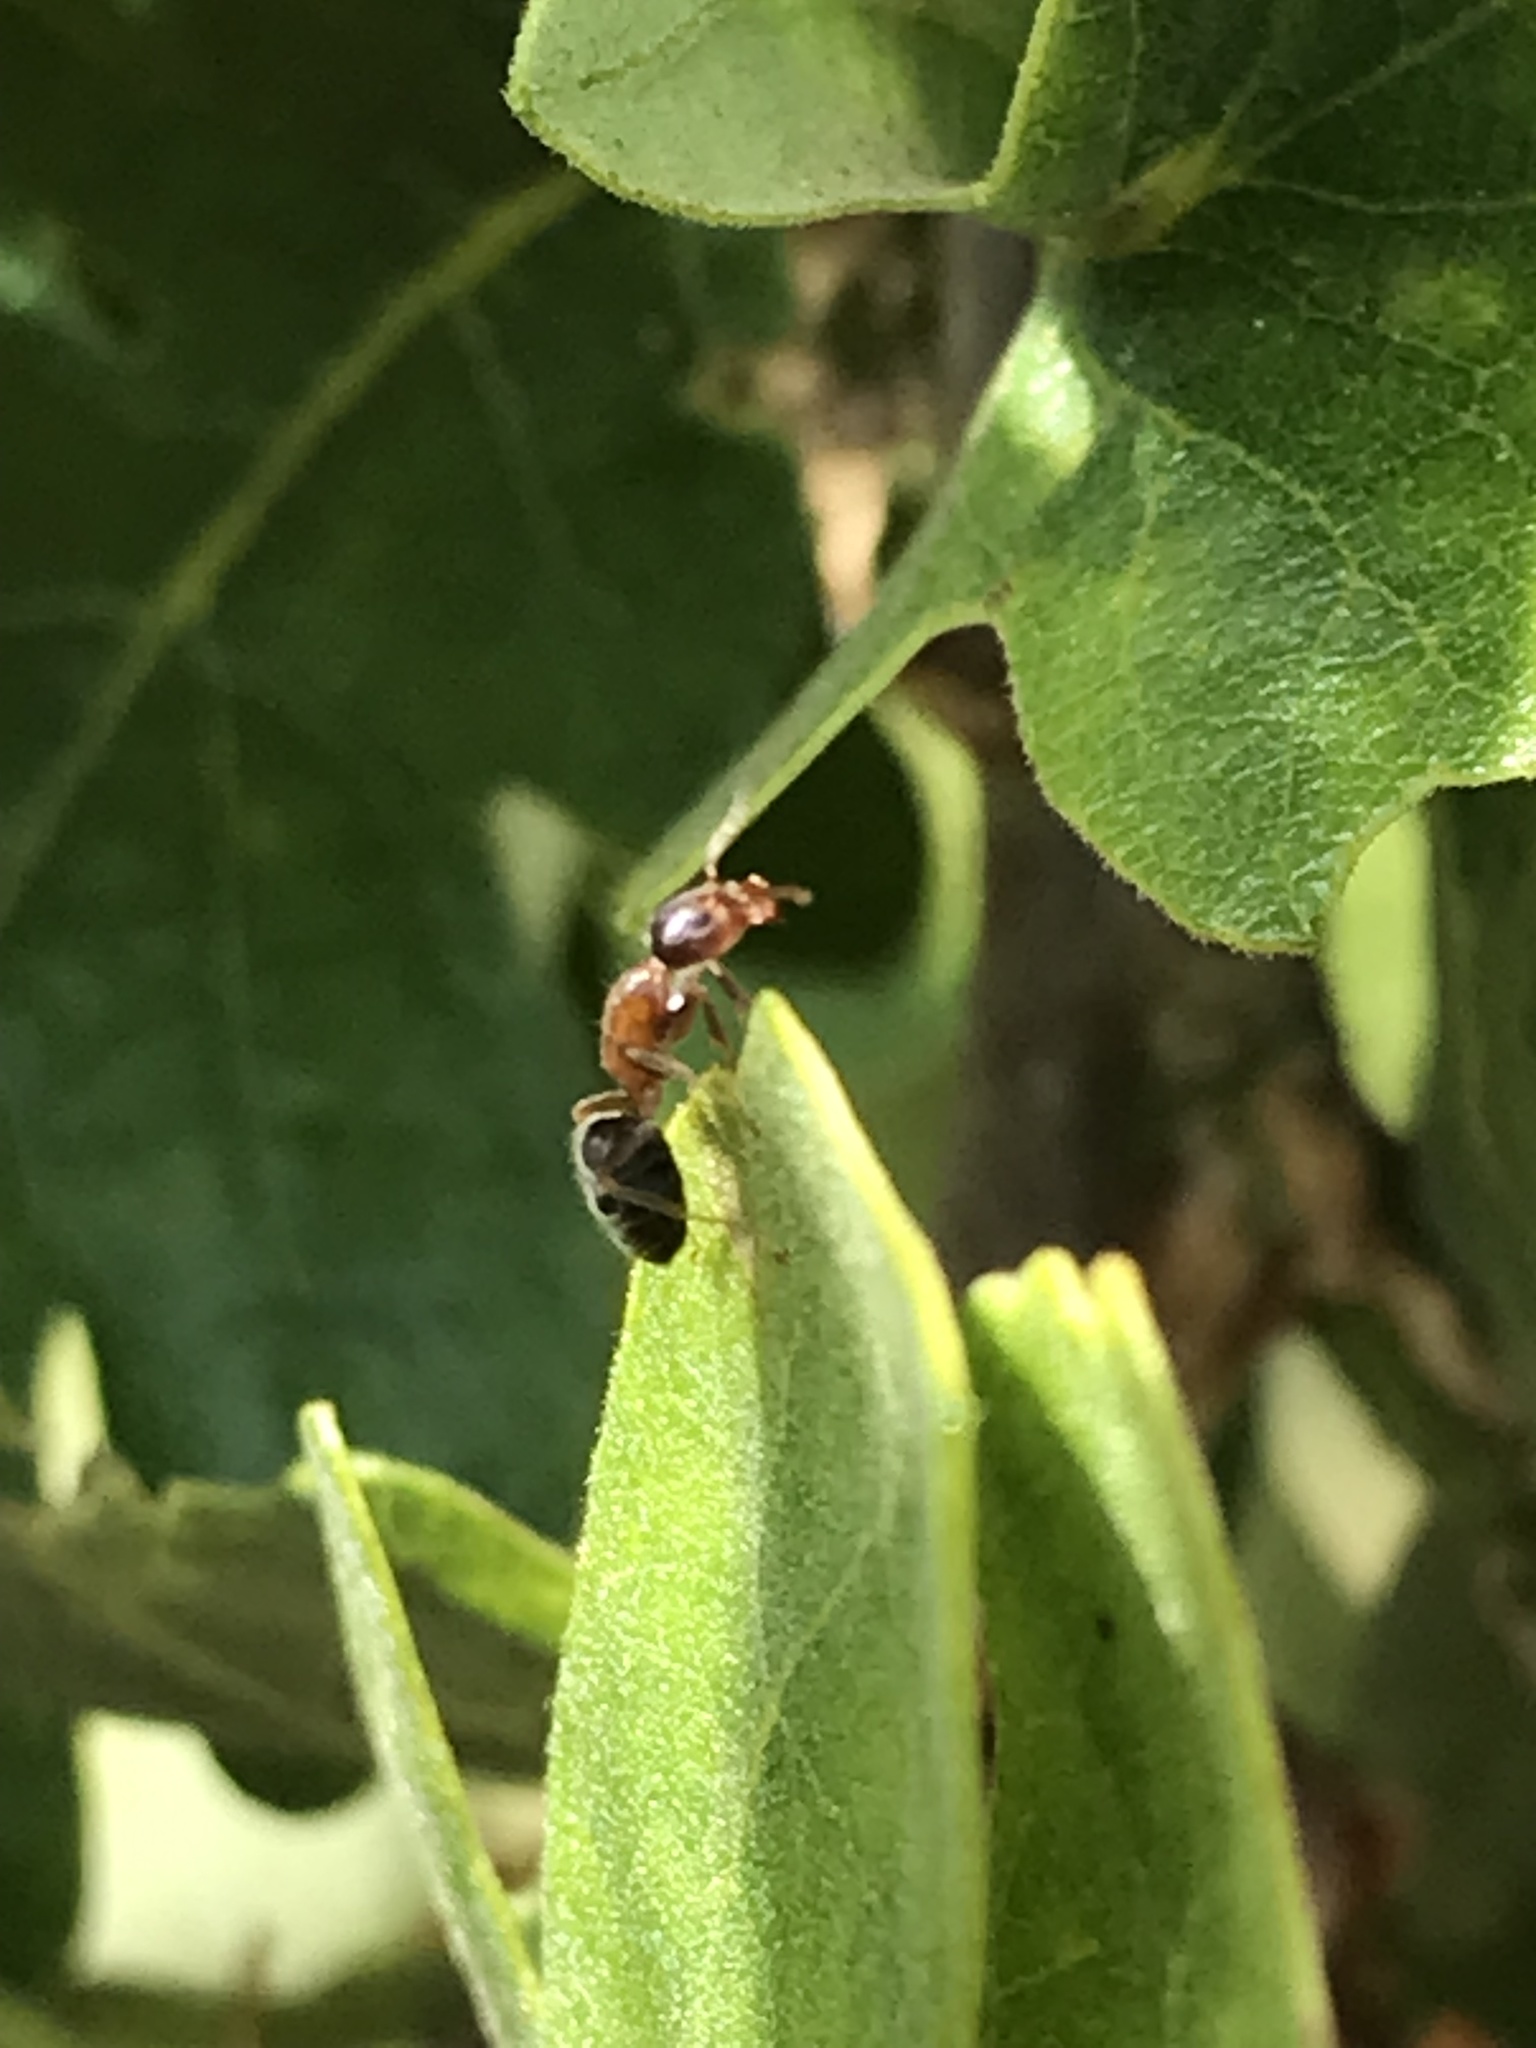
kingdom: Animalia
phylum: Arthropoda
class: Insecta
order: Hymenoptera
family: Formicidae
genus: Liometopum
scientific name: Liometopum occidentale
